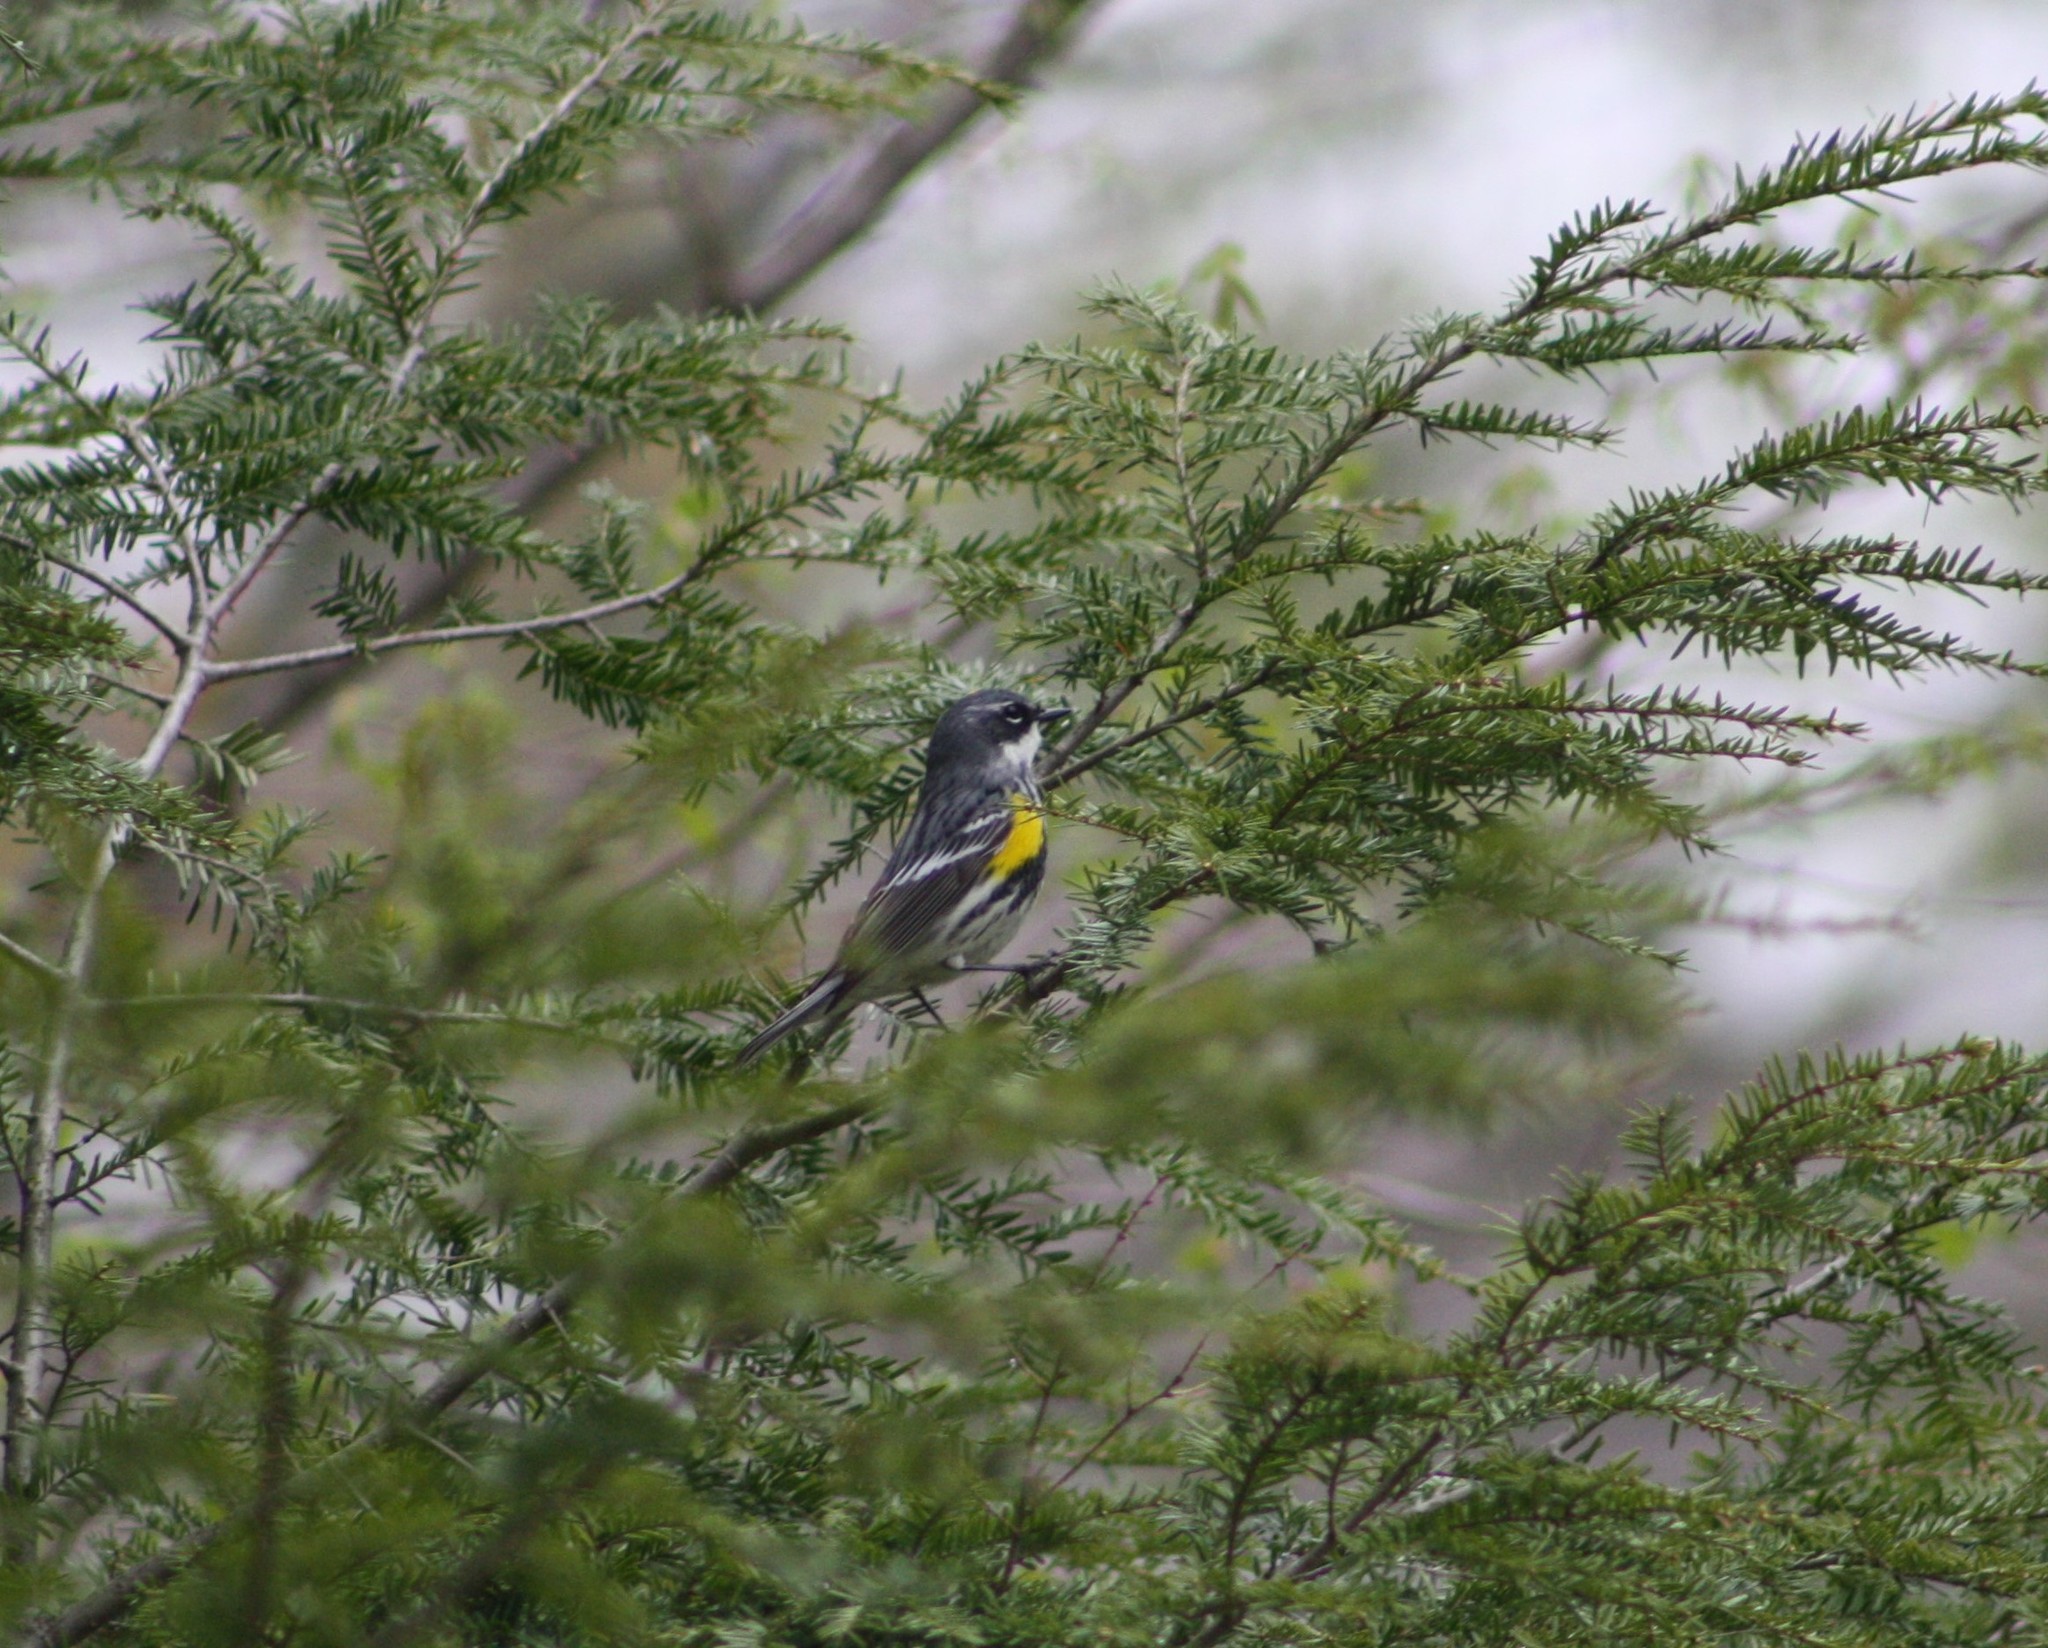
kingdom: Animalia
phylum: Chordata
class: Aves
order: Passeriformes
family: Parulidae
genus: Setophaga
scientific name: Setophaga coronata
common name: Myrtle warbler
